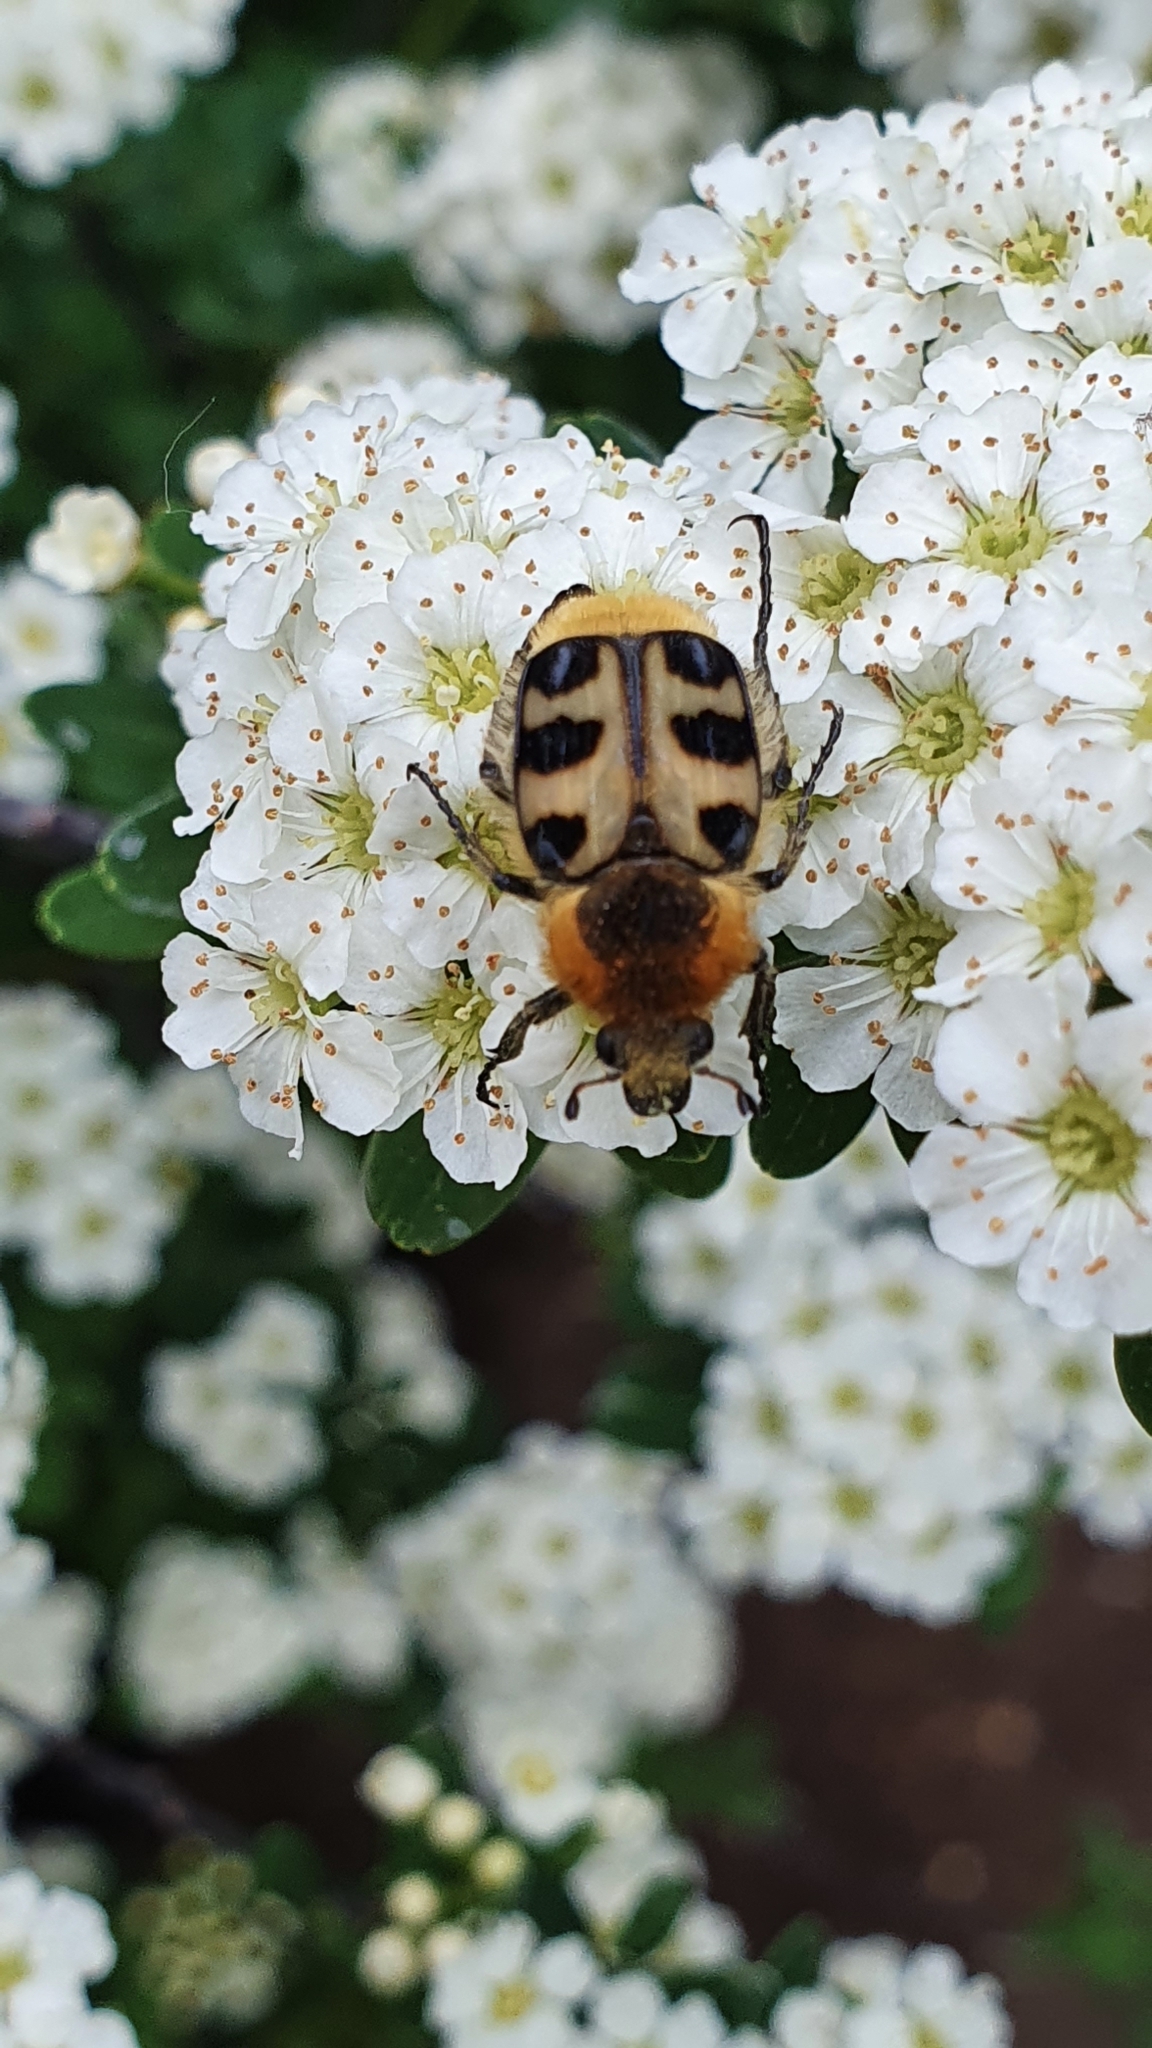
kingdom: Animalia
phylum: Arthropoda
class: Insecta
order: Coleoptera
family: Scarabaeidae
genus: Trichius
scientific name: Trichius gallicus
